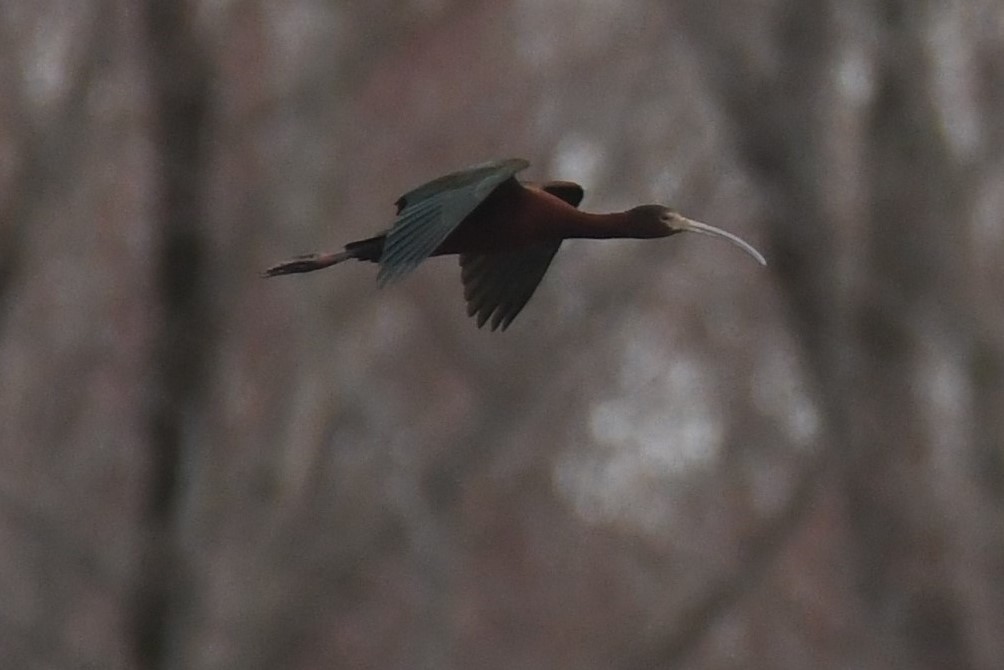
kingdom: Animalia
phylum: Chordata
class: Aves
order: Pelecaniformes
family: Threskiornithidae
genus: Plegadis
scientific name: Plegadis
